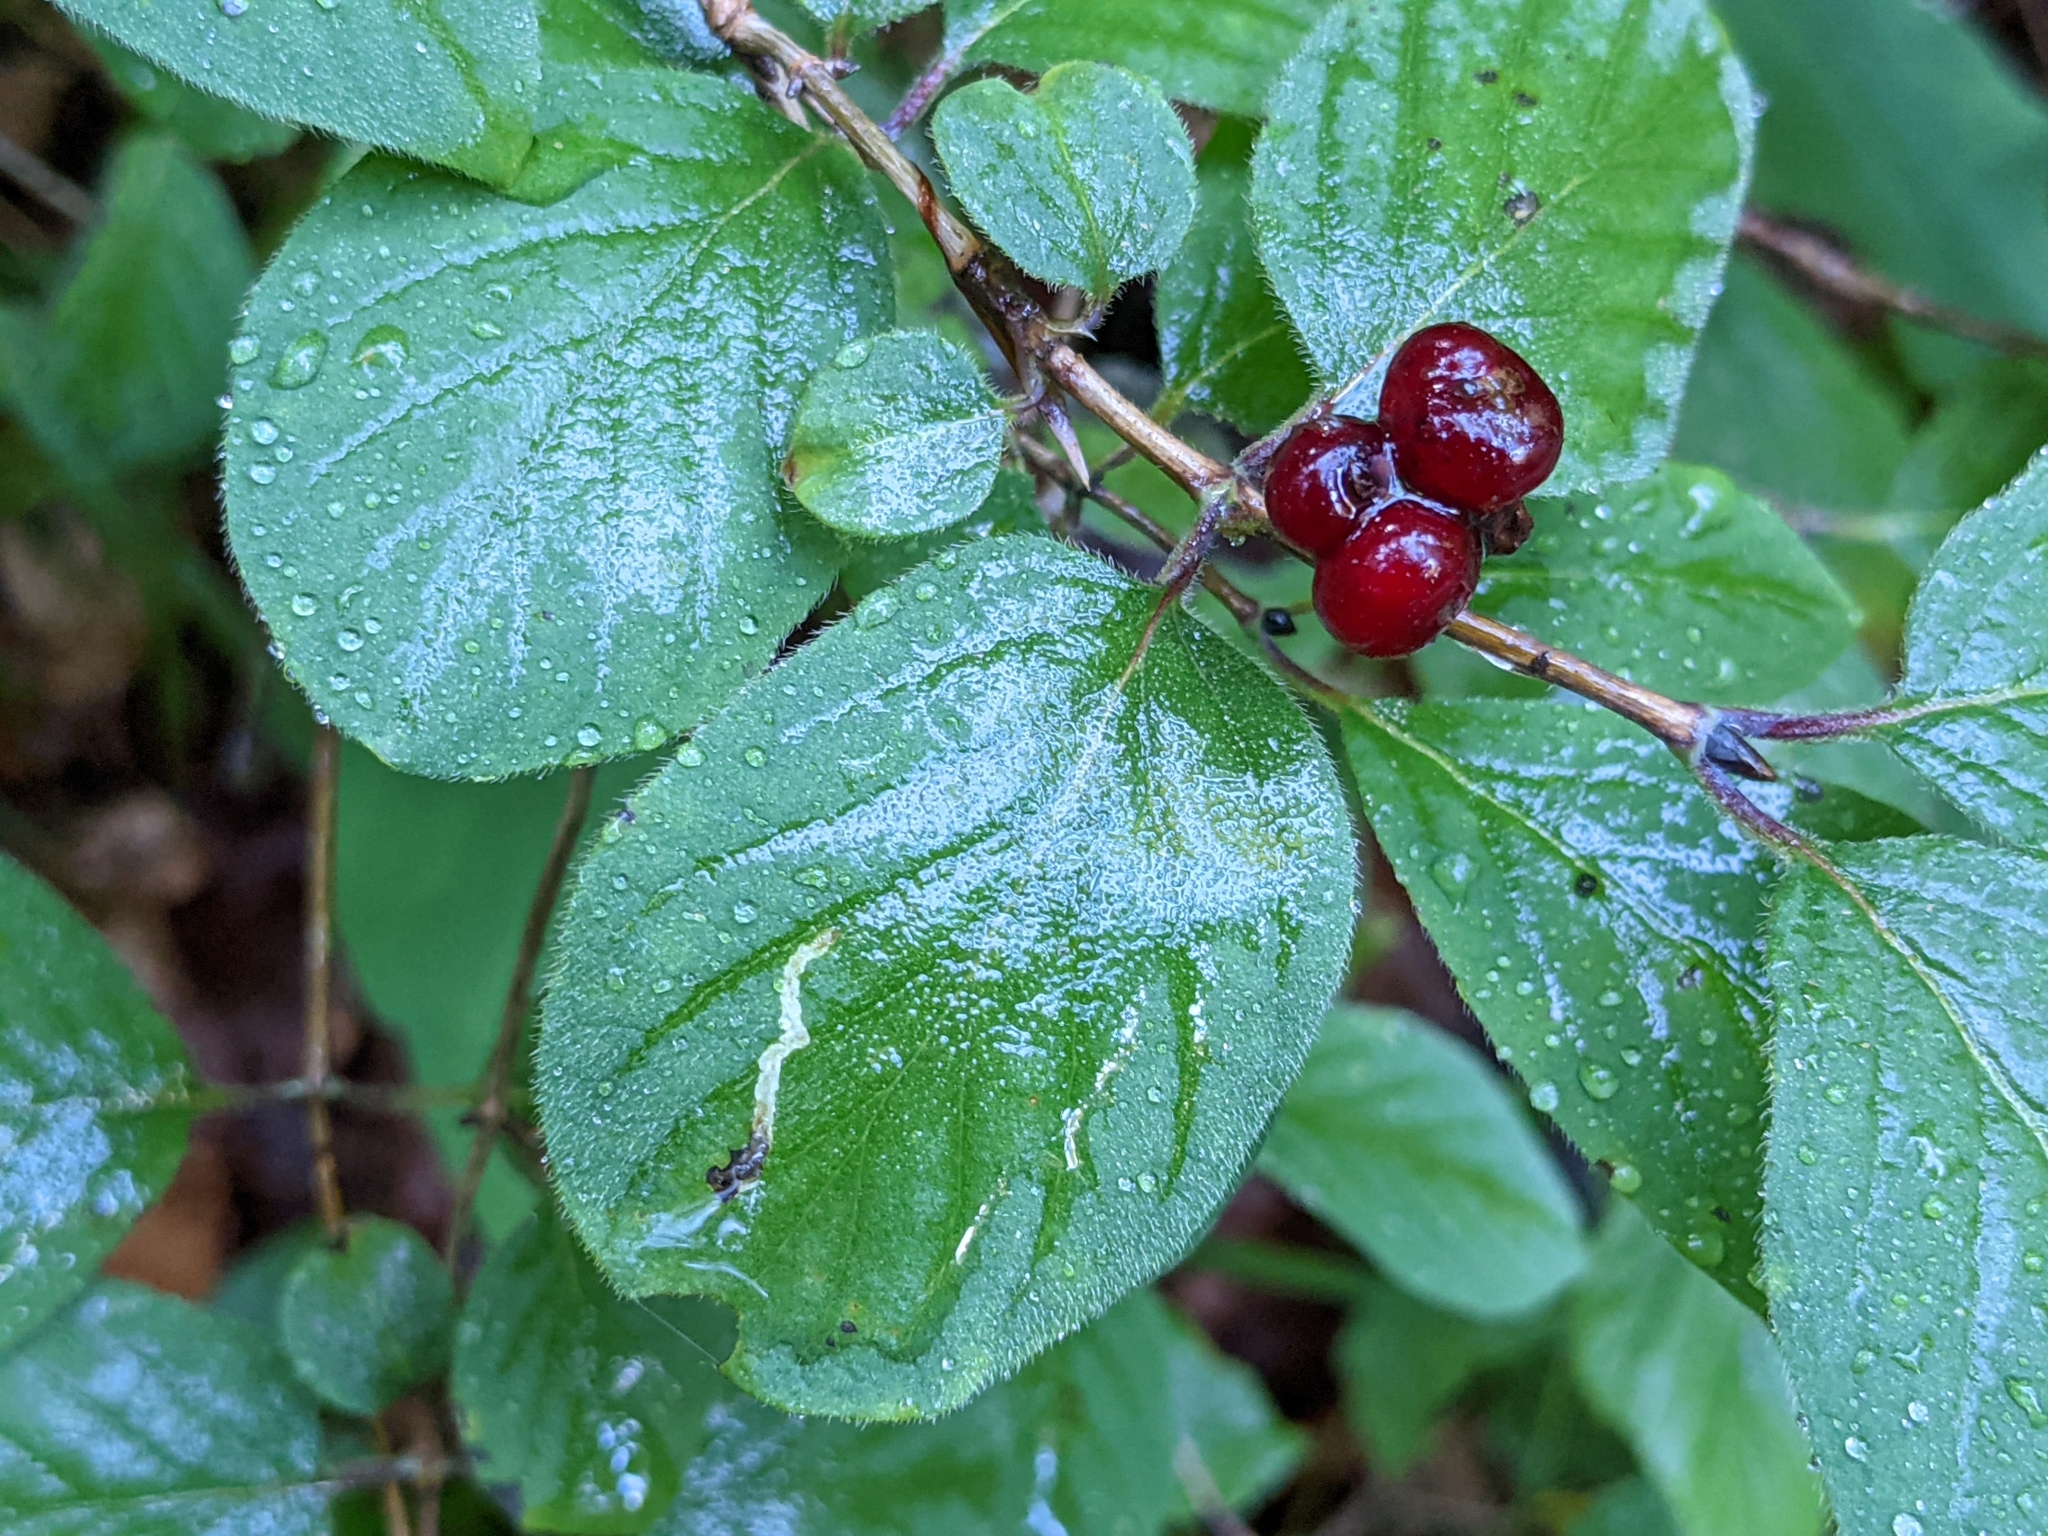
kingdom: Plantae
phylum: Tracheophyta
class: Magnoliopsida
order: Dipsacales
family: Caprifoliaceae
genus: Lonicera
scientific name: Lonicera xylosteum
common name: Fly honeysuckle
